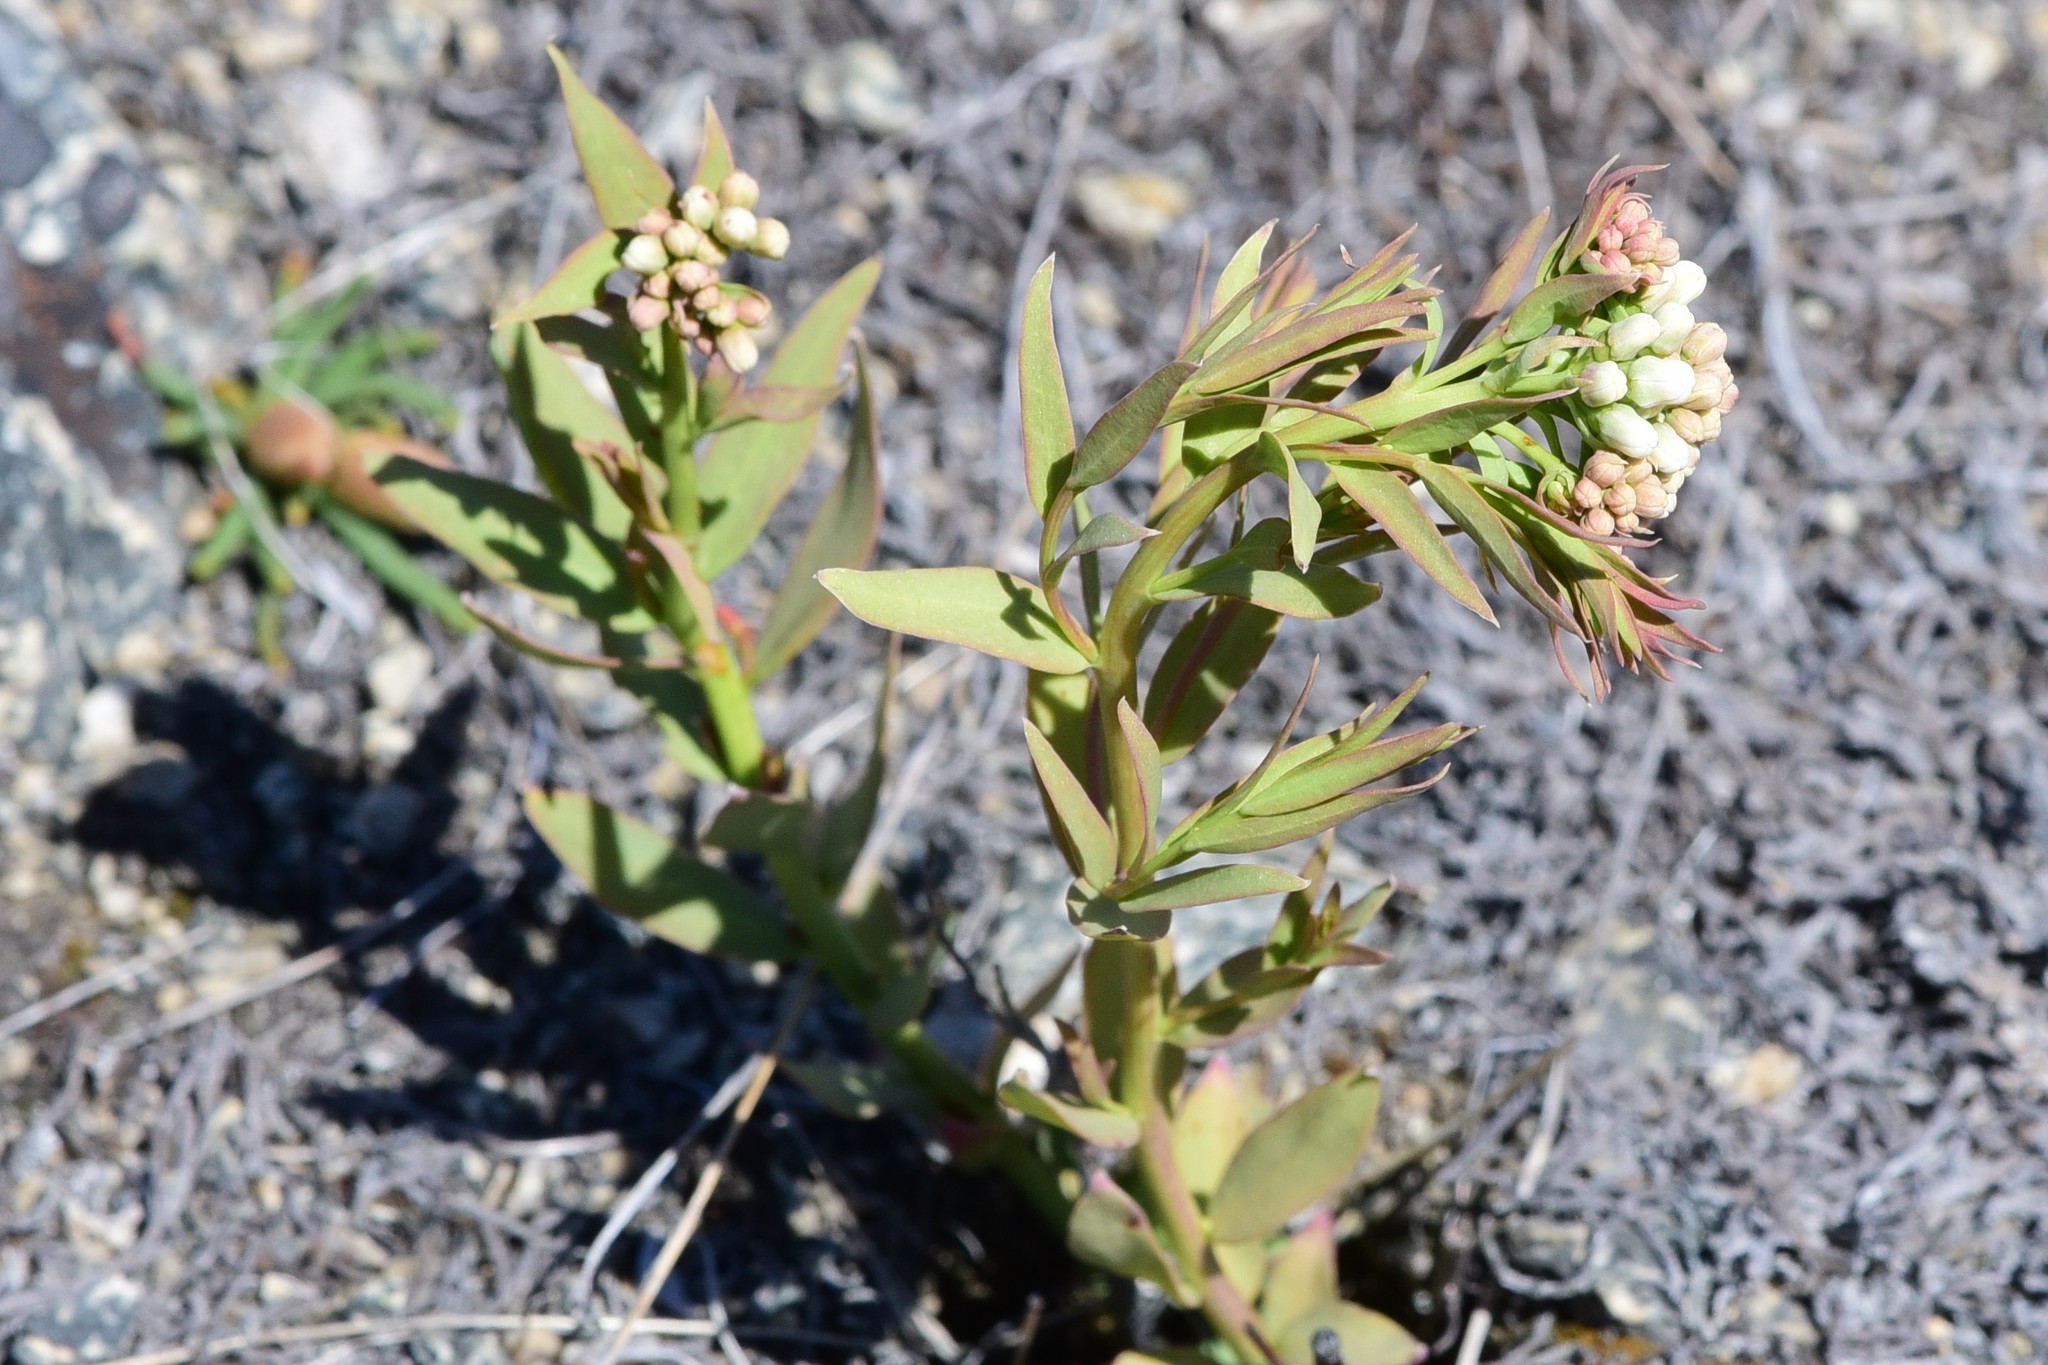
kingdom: Plantae
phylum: Tracheophyta
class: Magnoliopsida
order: Santalales
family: Comandraceae
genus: Comandra
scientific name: Comandra umbellata
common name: Bastard toadflax
